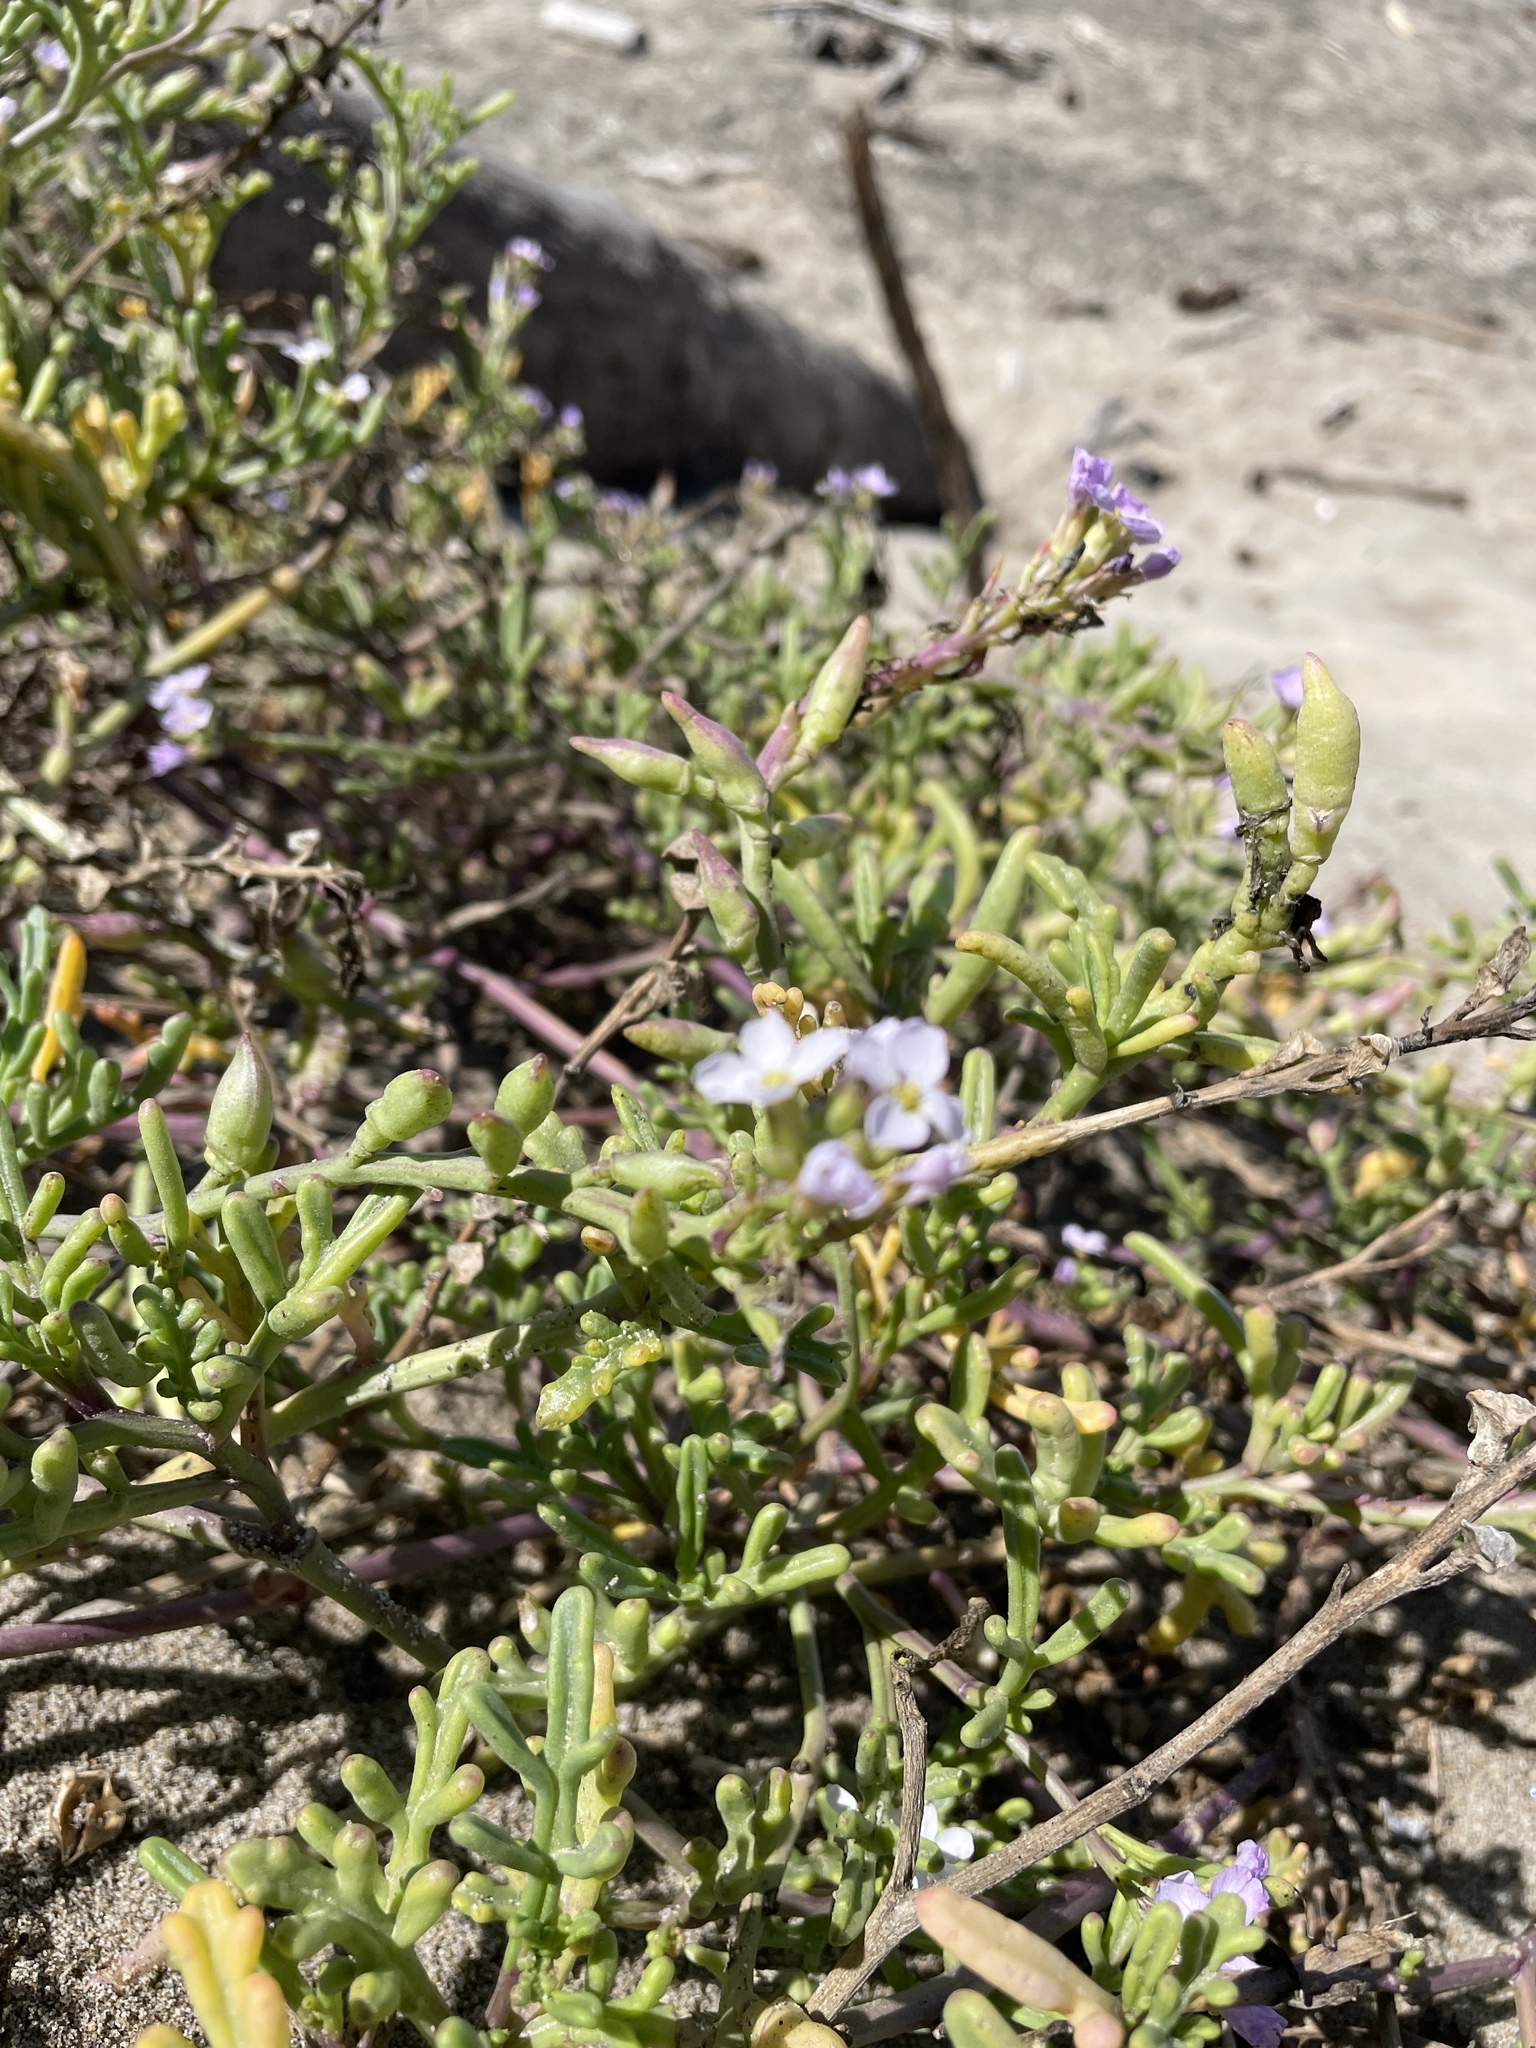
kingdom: Plantae
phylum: Tracheophyta
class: Magnoliopsida
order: Brassicales
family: Brassicaceae
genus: Cakile
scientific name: Cakile maritima
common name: Sea rocket
